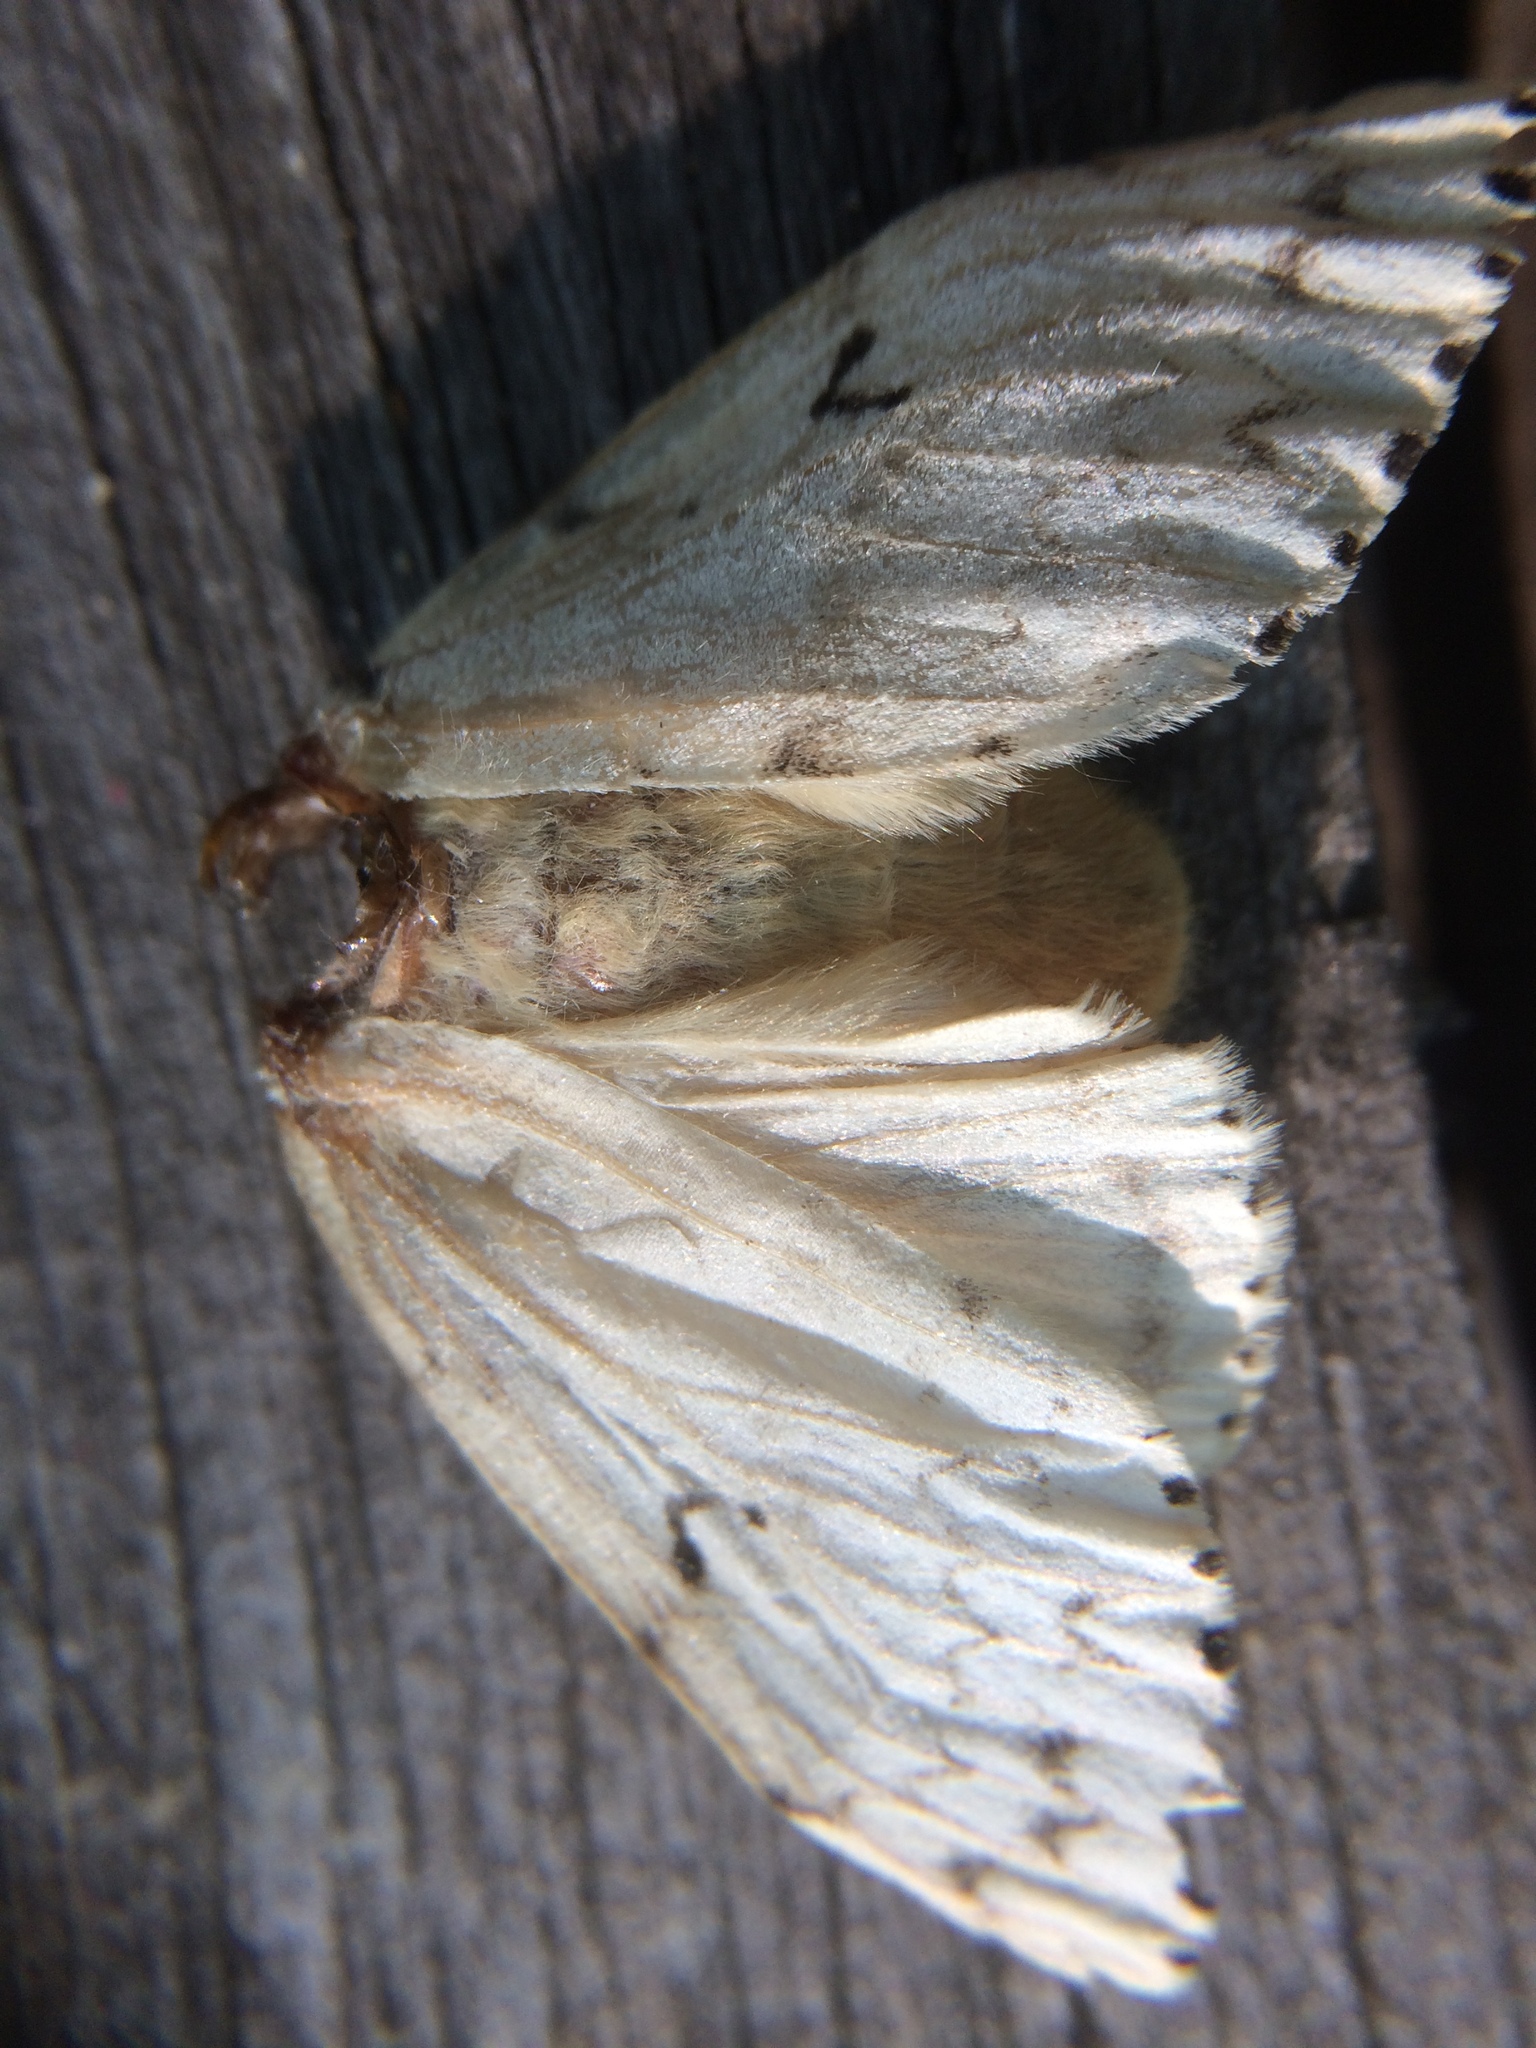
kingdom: Animalia
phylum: Arthropoda
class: Insecta
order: Lepidoptera
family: Erebidae
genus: Lymantria
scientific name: Lymantria dispar
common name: Gypsy moth
